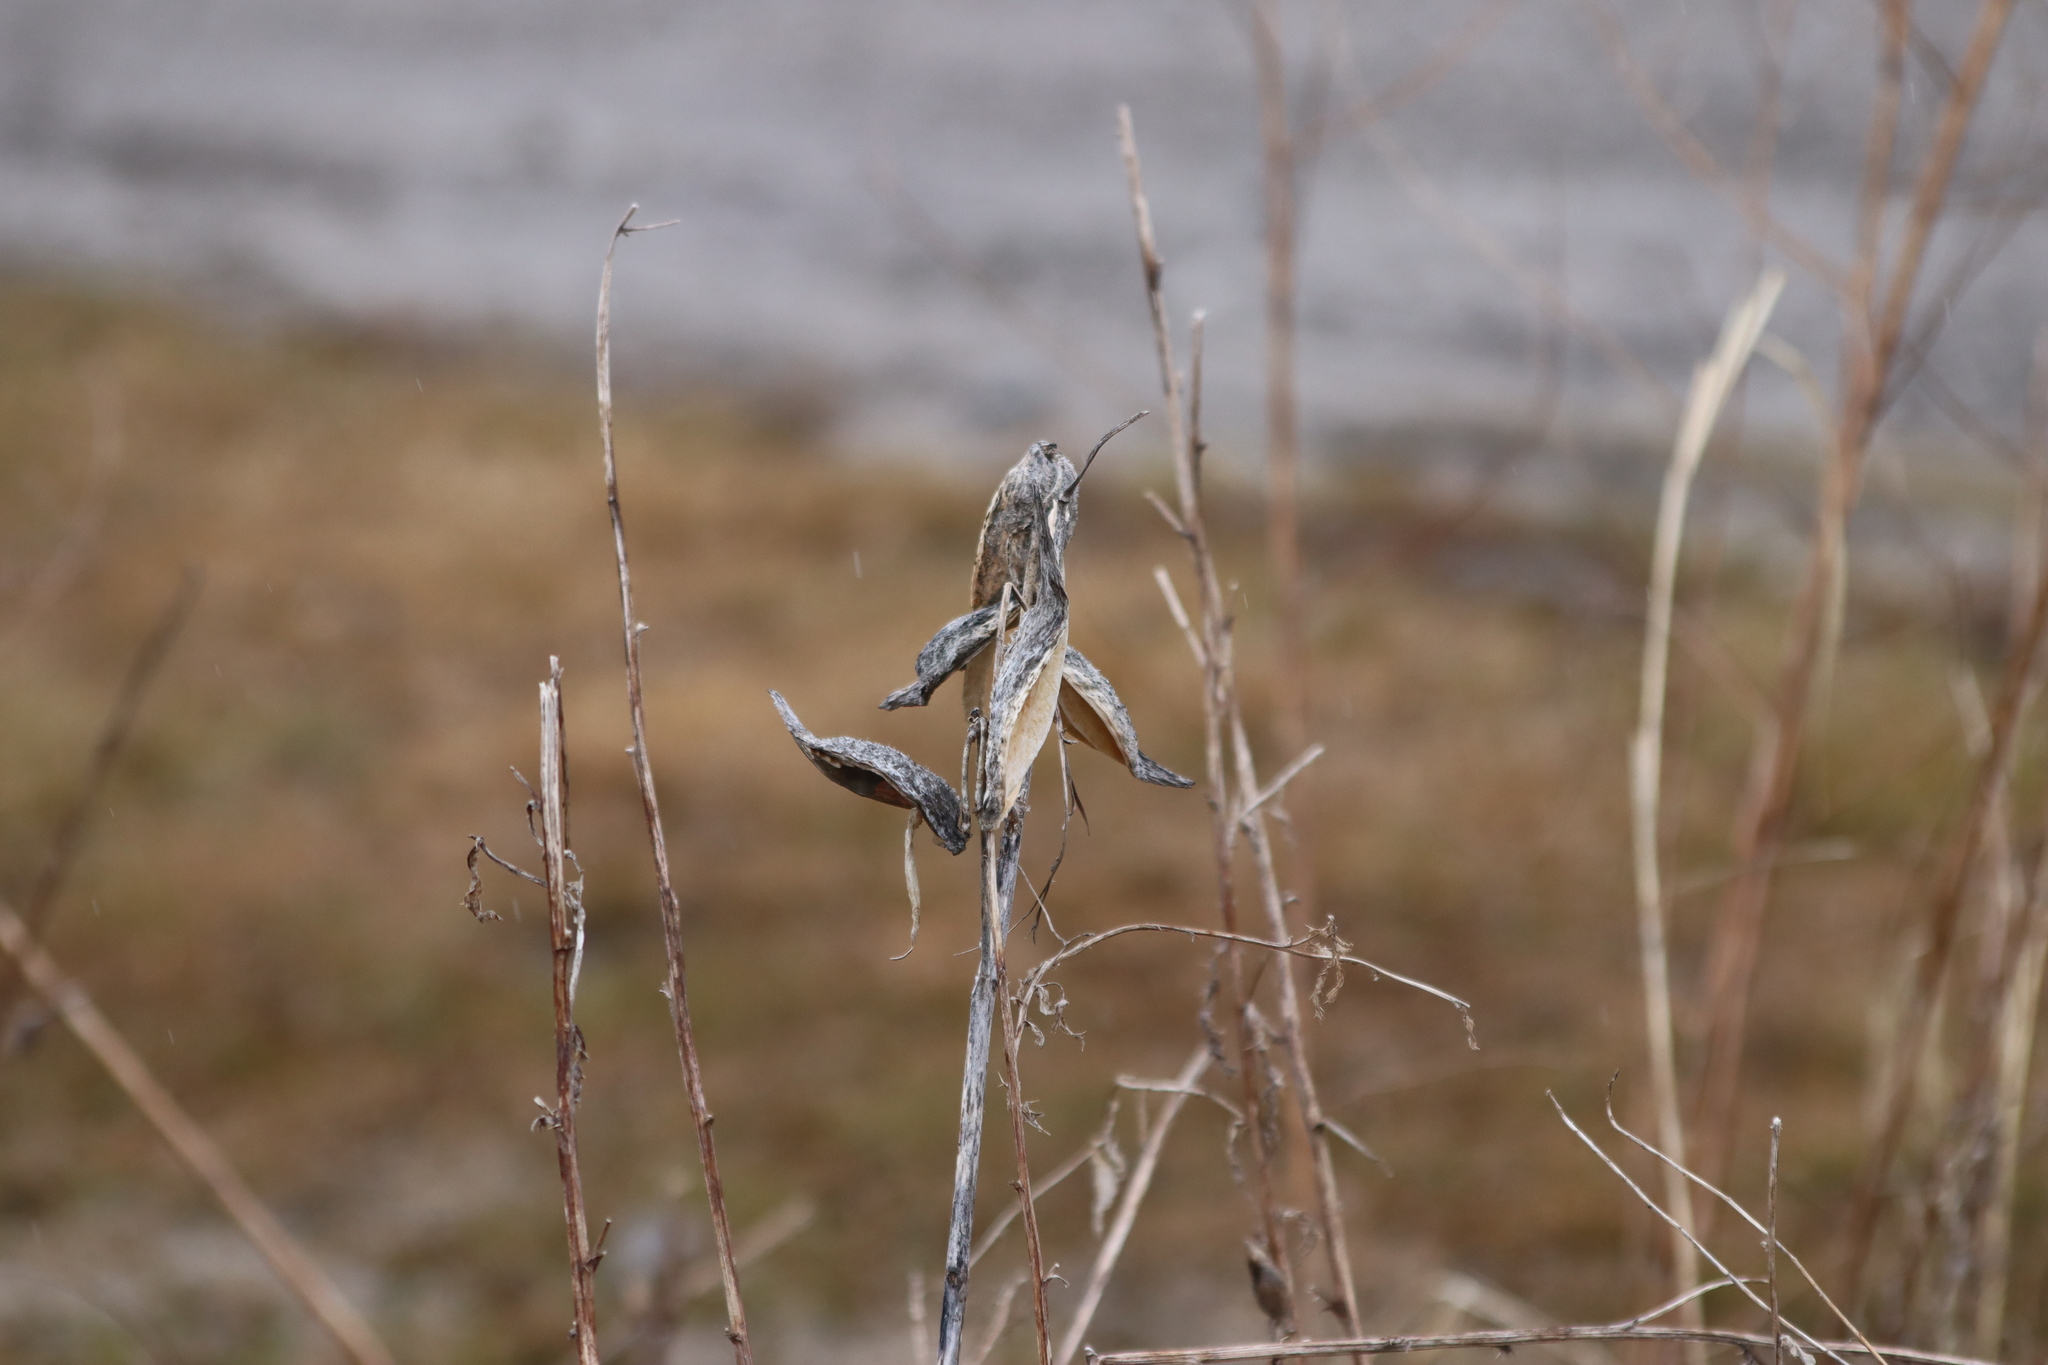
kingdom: Plantae
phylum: Tracheophyta
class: Magnoliopsida
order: Gentianales
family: Apocynaceae
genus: Asclepias
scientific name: Asclepias syriaca
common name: Common milkweed
